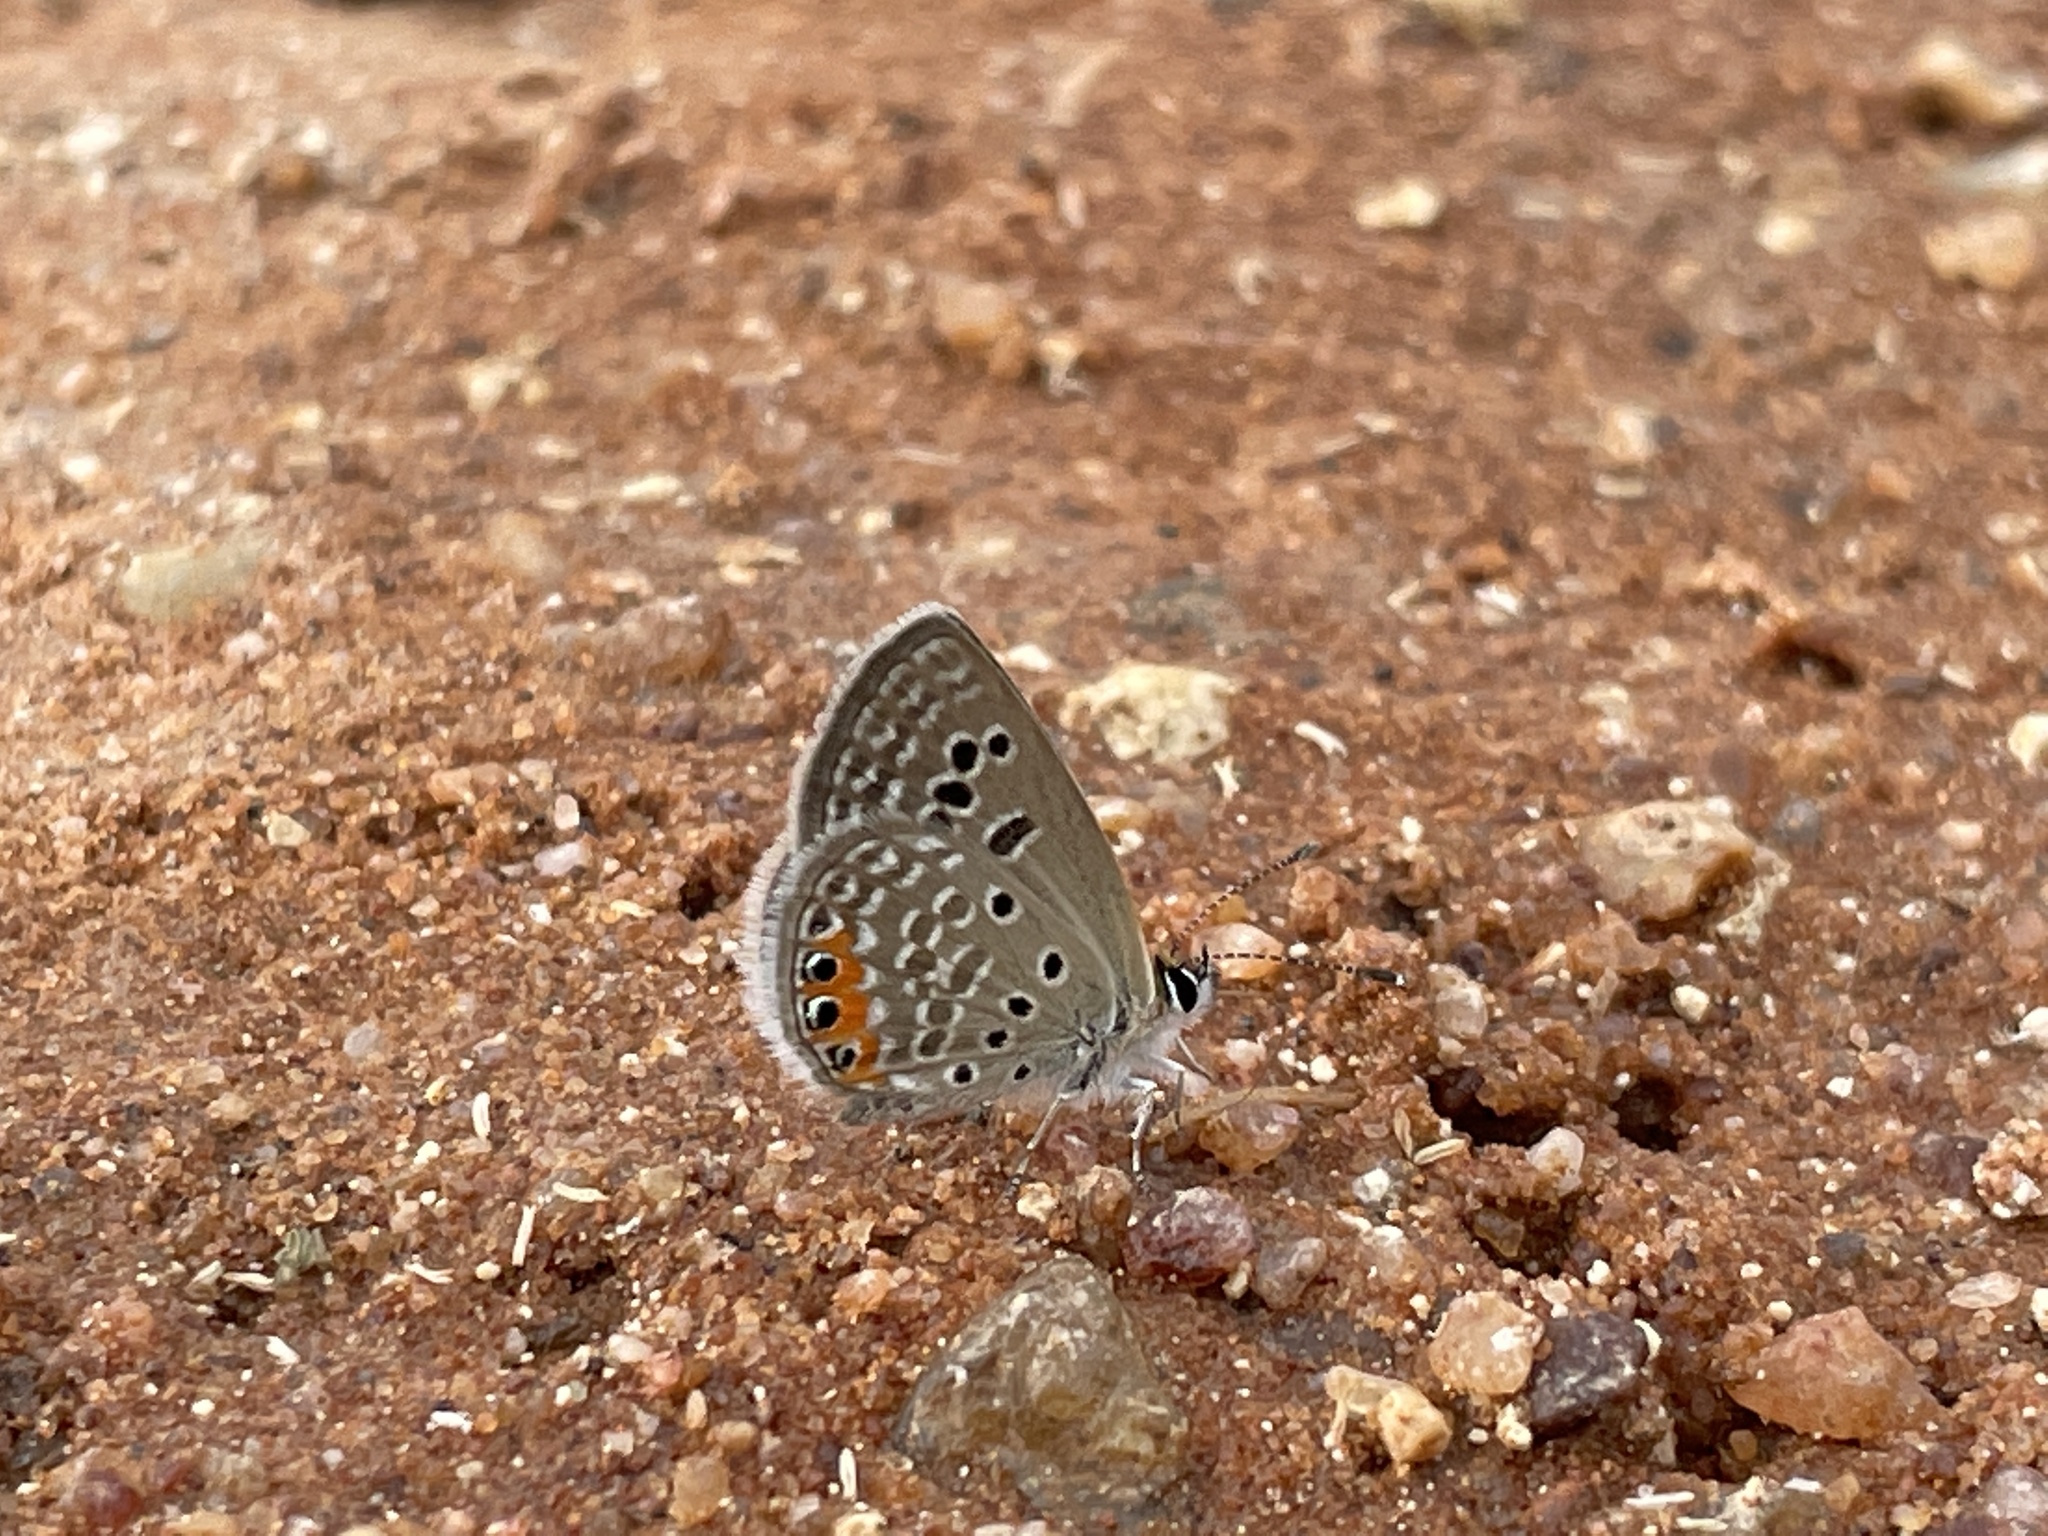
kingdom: Animalia
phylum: Arthropoda
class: Insecta
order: Lepidoptera
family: Lycaenidae
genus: Freyeria
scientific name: Freyeria trochylus
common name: Grass jewel
